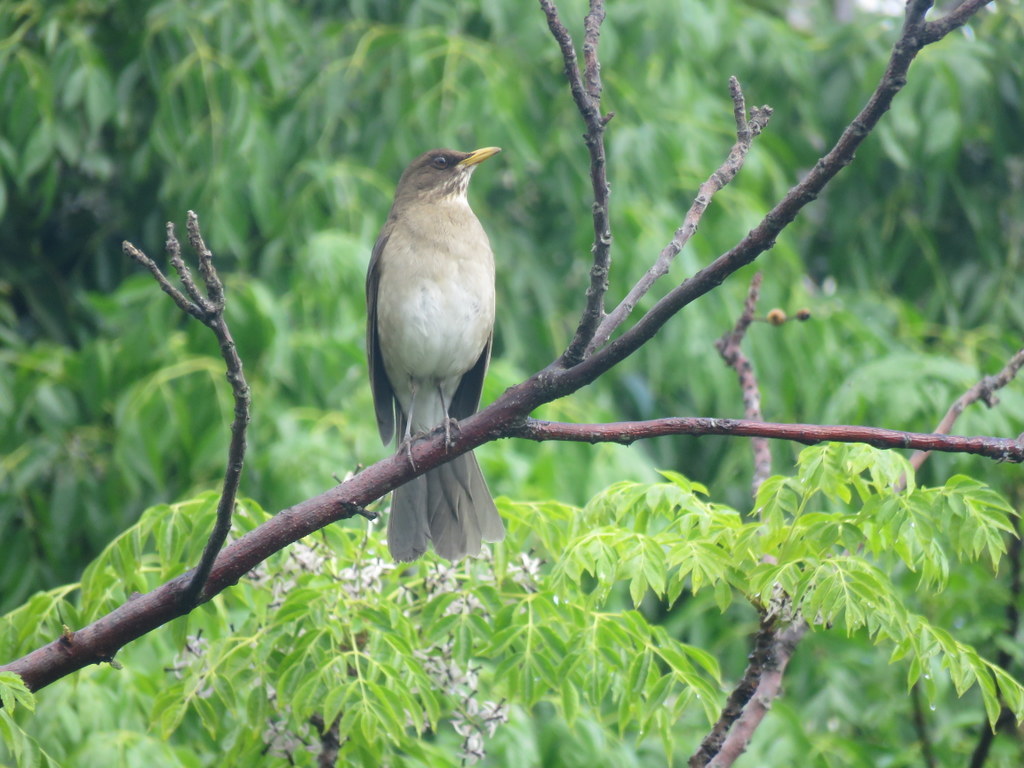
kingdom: Animalia
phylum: Chordata
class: Aves
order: Passeriformes
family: Turdidae
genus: Turdus
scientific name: Turdus amaurochalinus
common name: Creamy-bellied thrush
